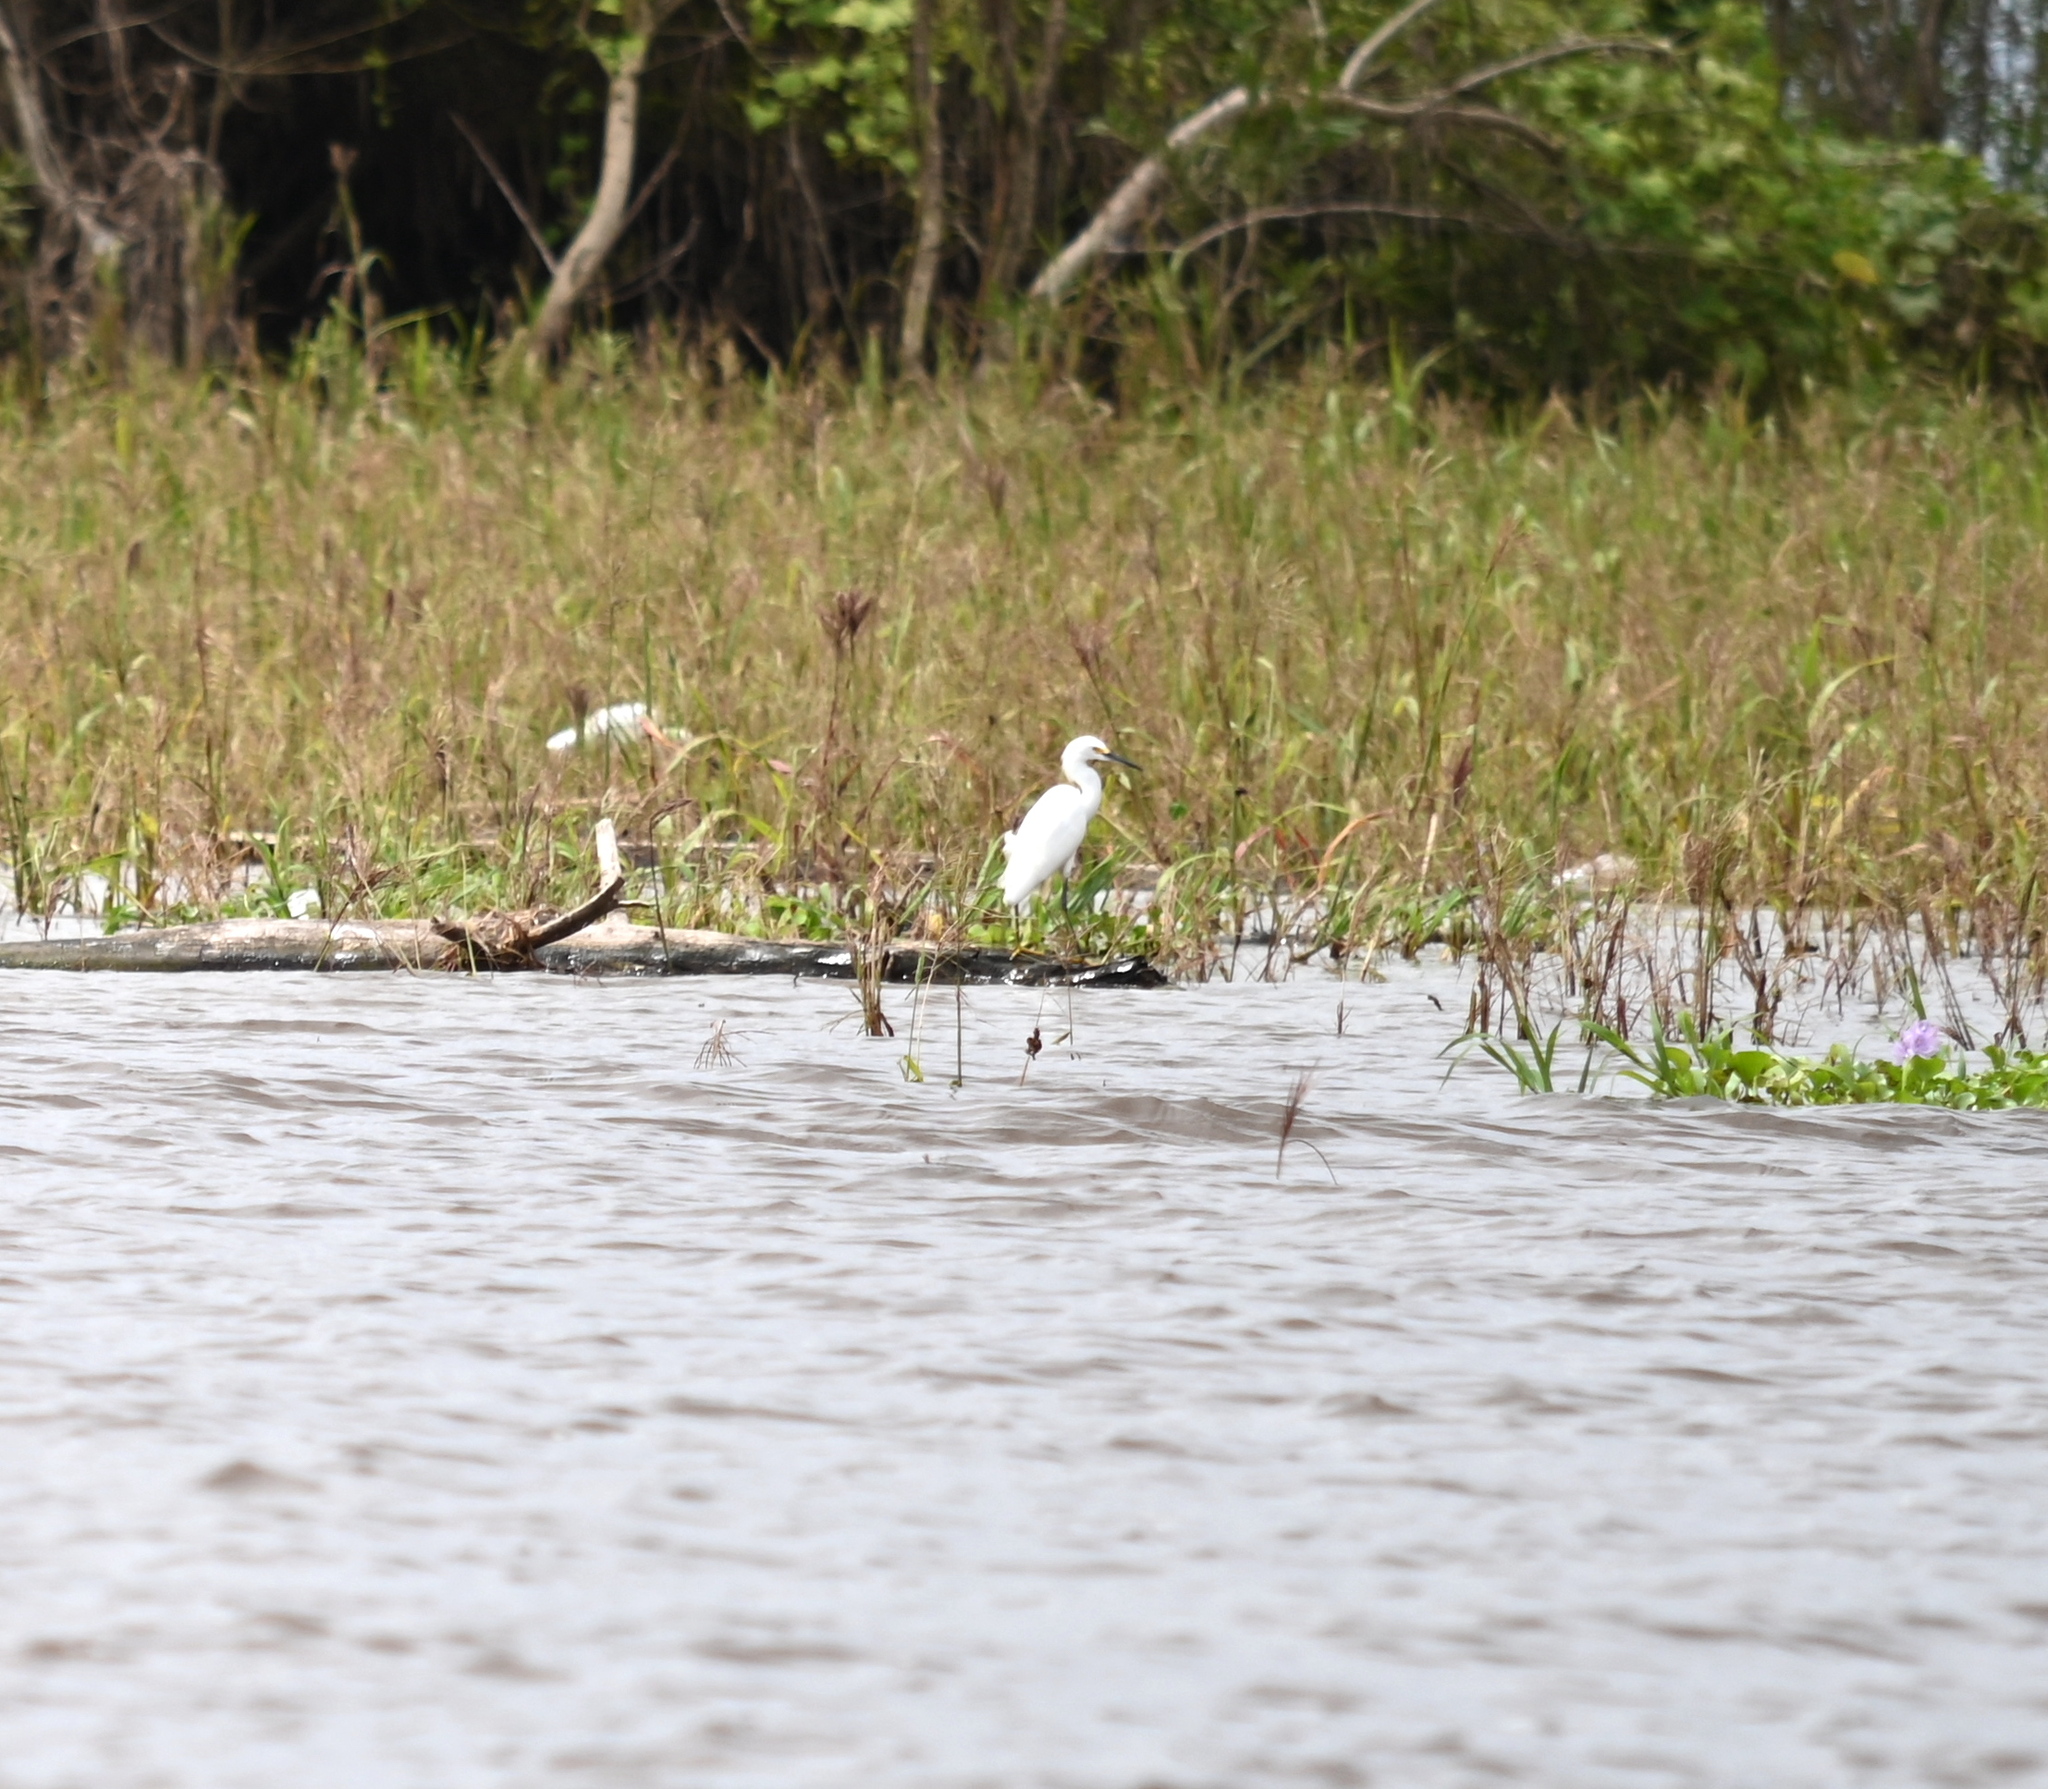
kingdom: Animalia
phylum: Chordata
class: Aves
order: Pelecaniformes
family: Ardeidae
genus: Egretta
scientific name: Egretta thula
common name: Snowy egret
